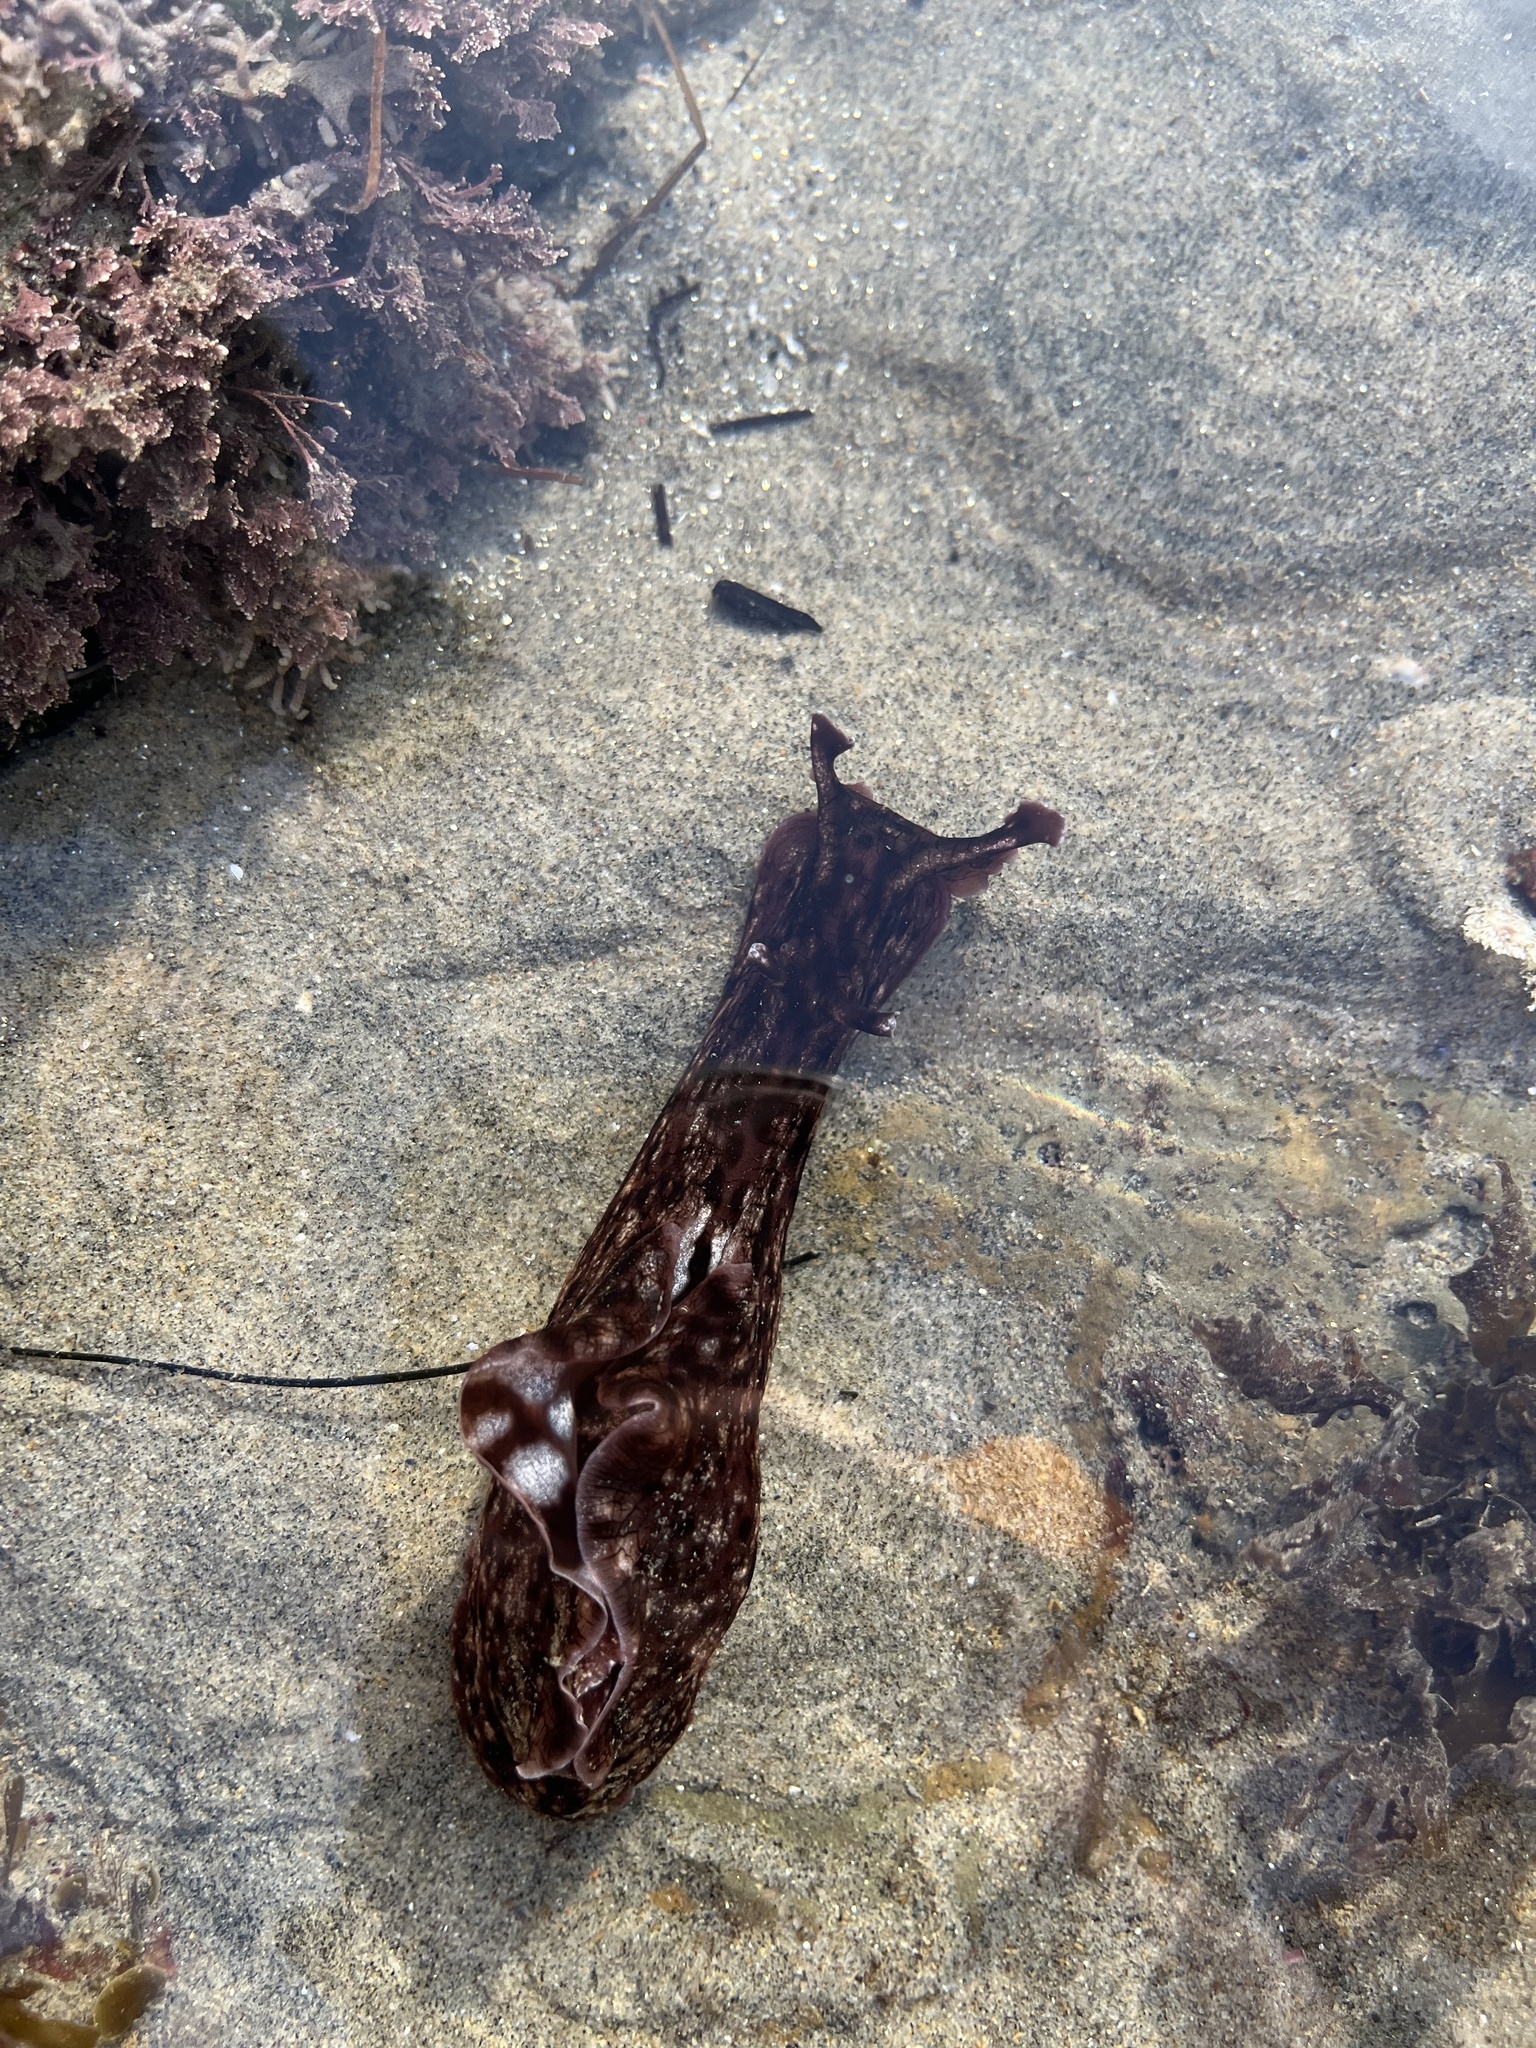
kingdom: Animalia
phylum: Mollusca
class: Gastropoda
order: Aplysiida
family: Aplysiidae
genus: Aplysia
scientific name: Aplysia californica
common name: California seahare
